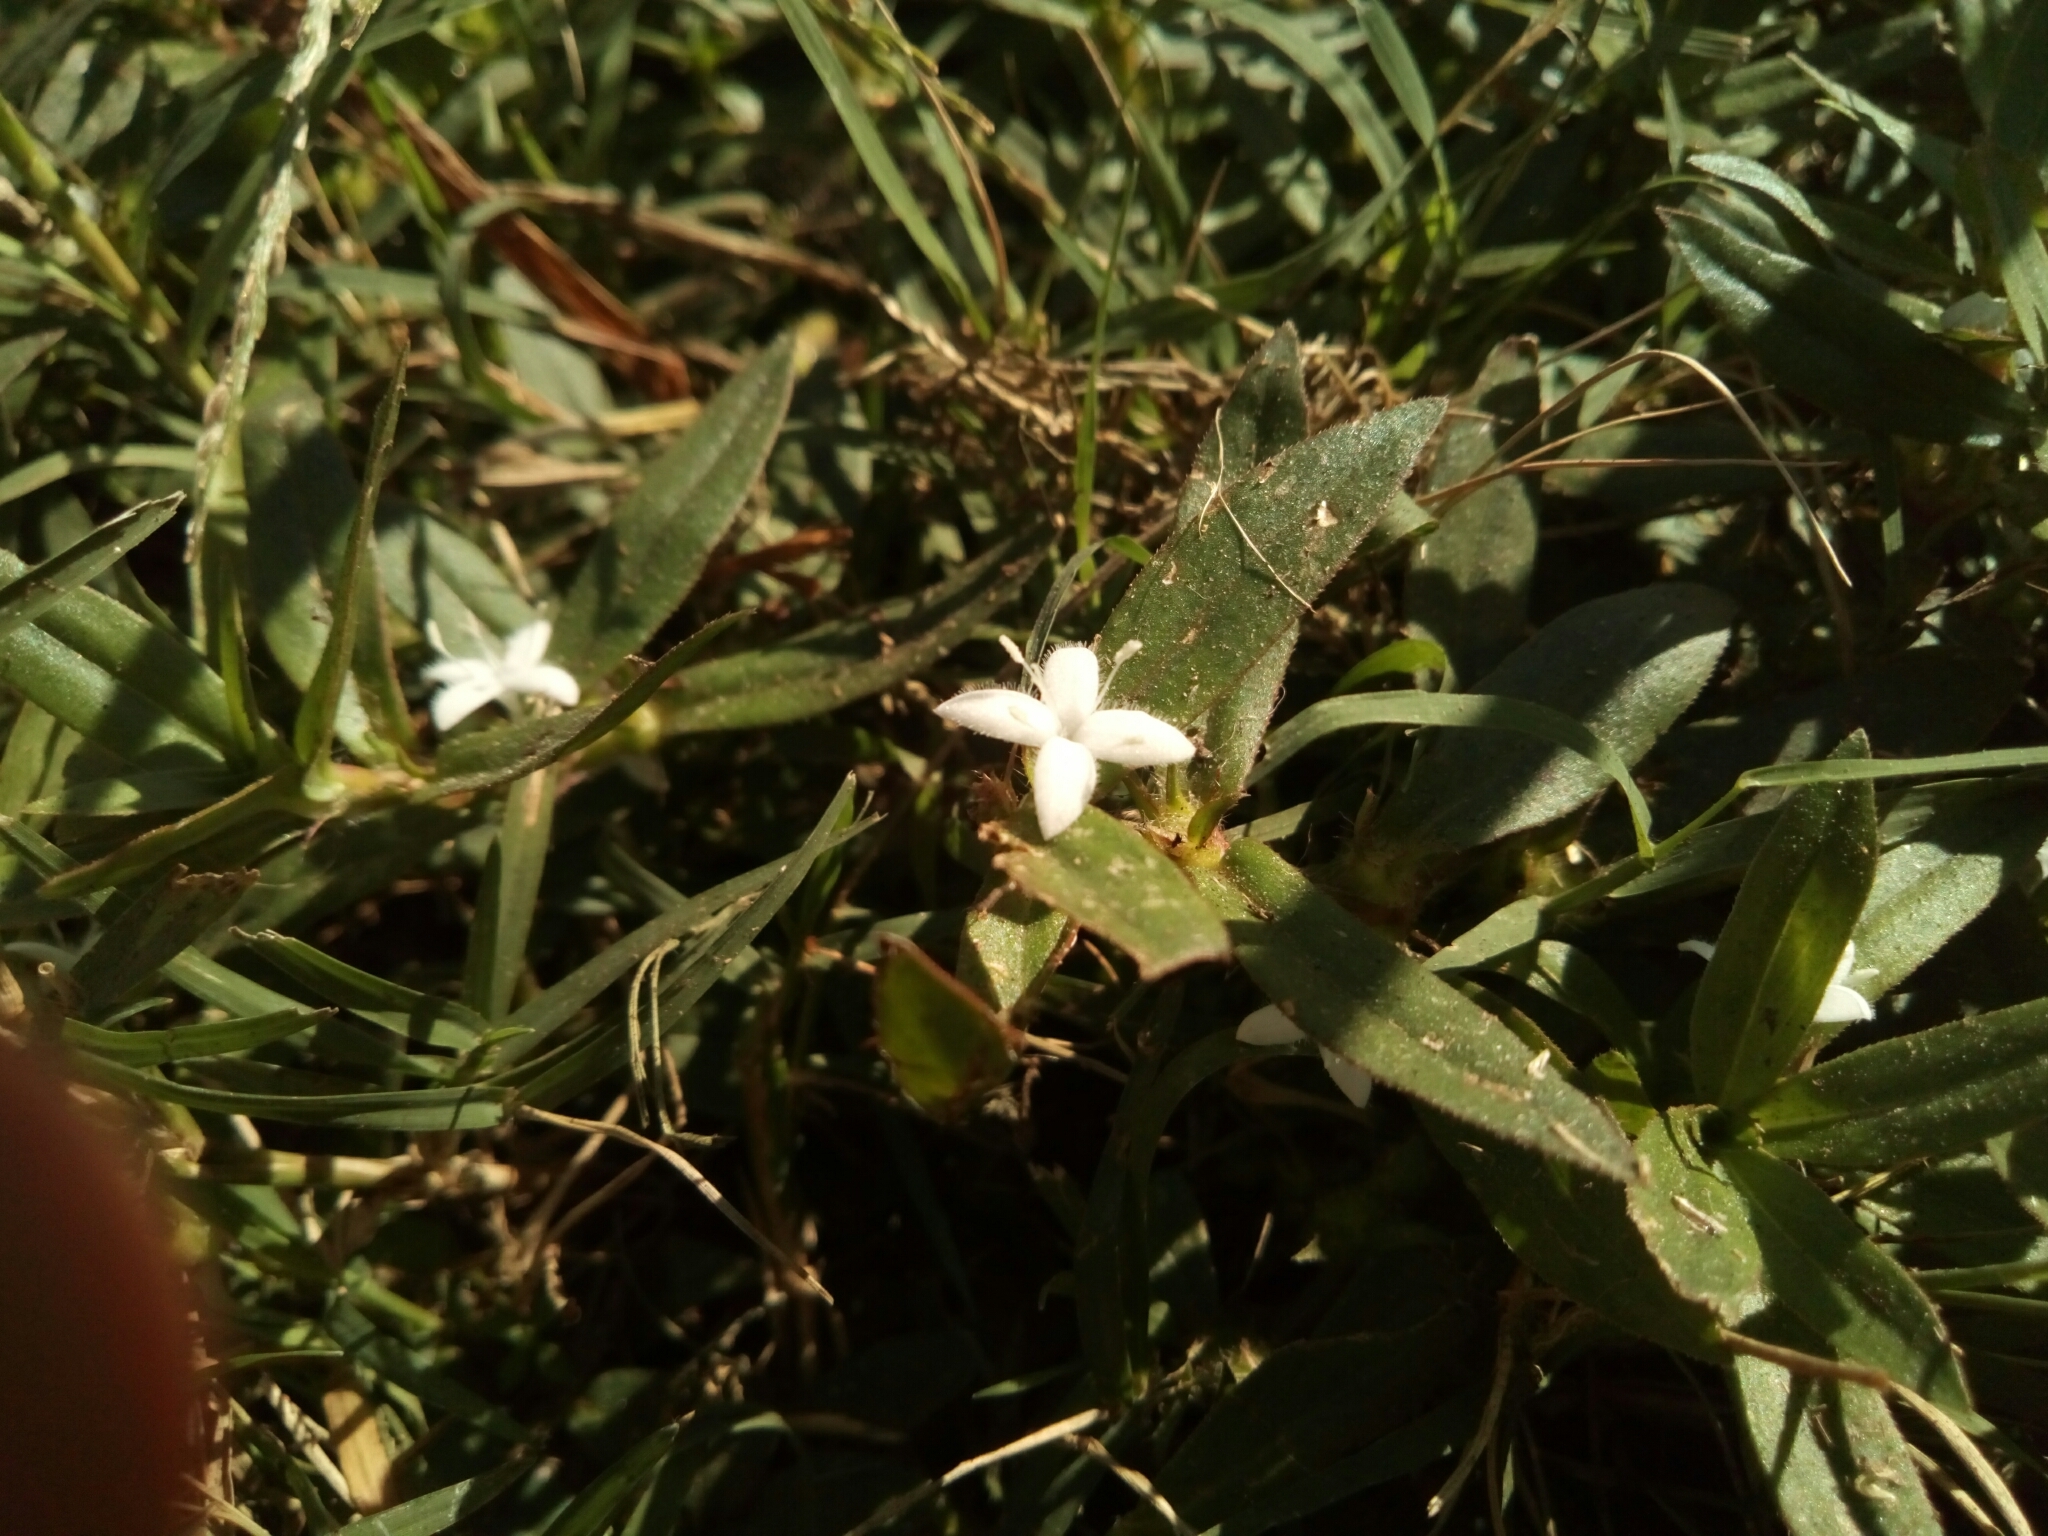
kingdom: Plantae
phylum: Tracheophyta
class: Magnoliopsida
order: Gentianales
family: Rubiaceae
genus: Diodia
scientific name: Diodia virginiana
